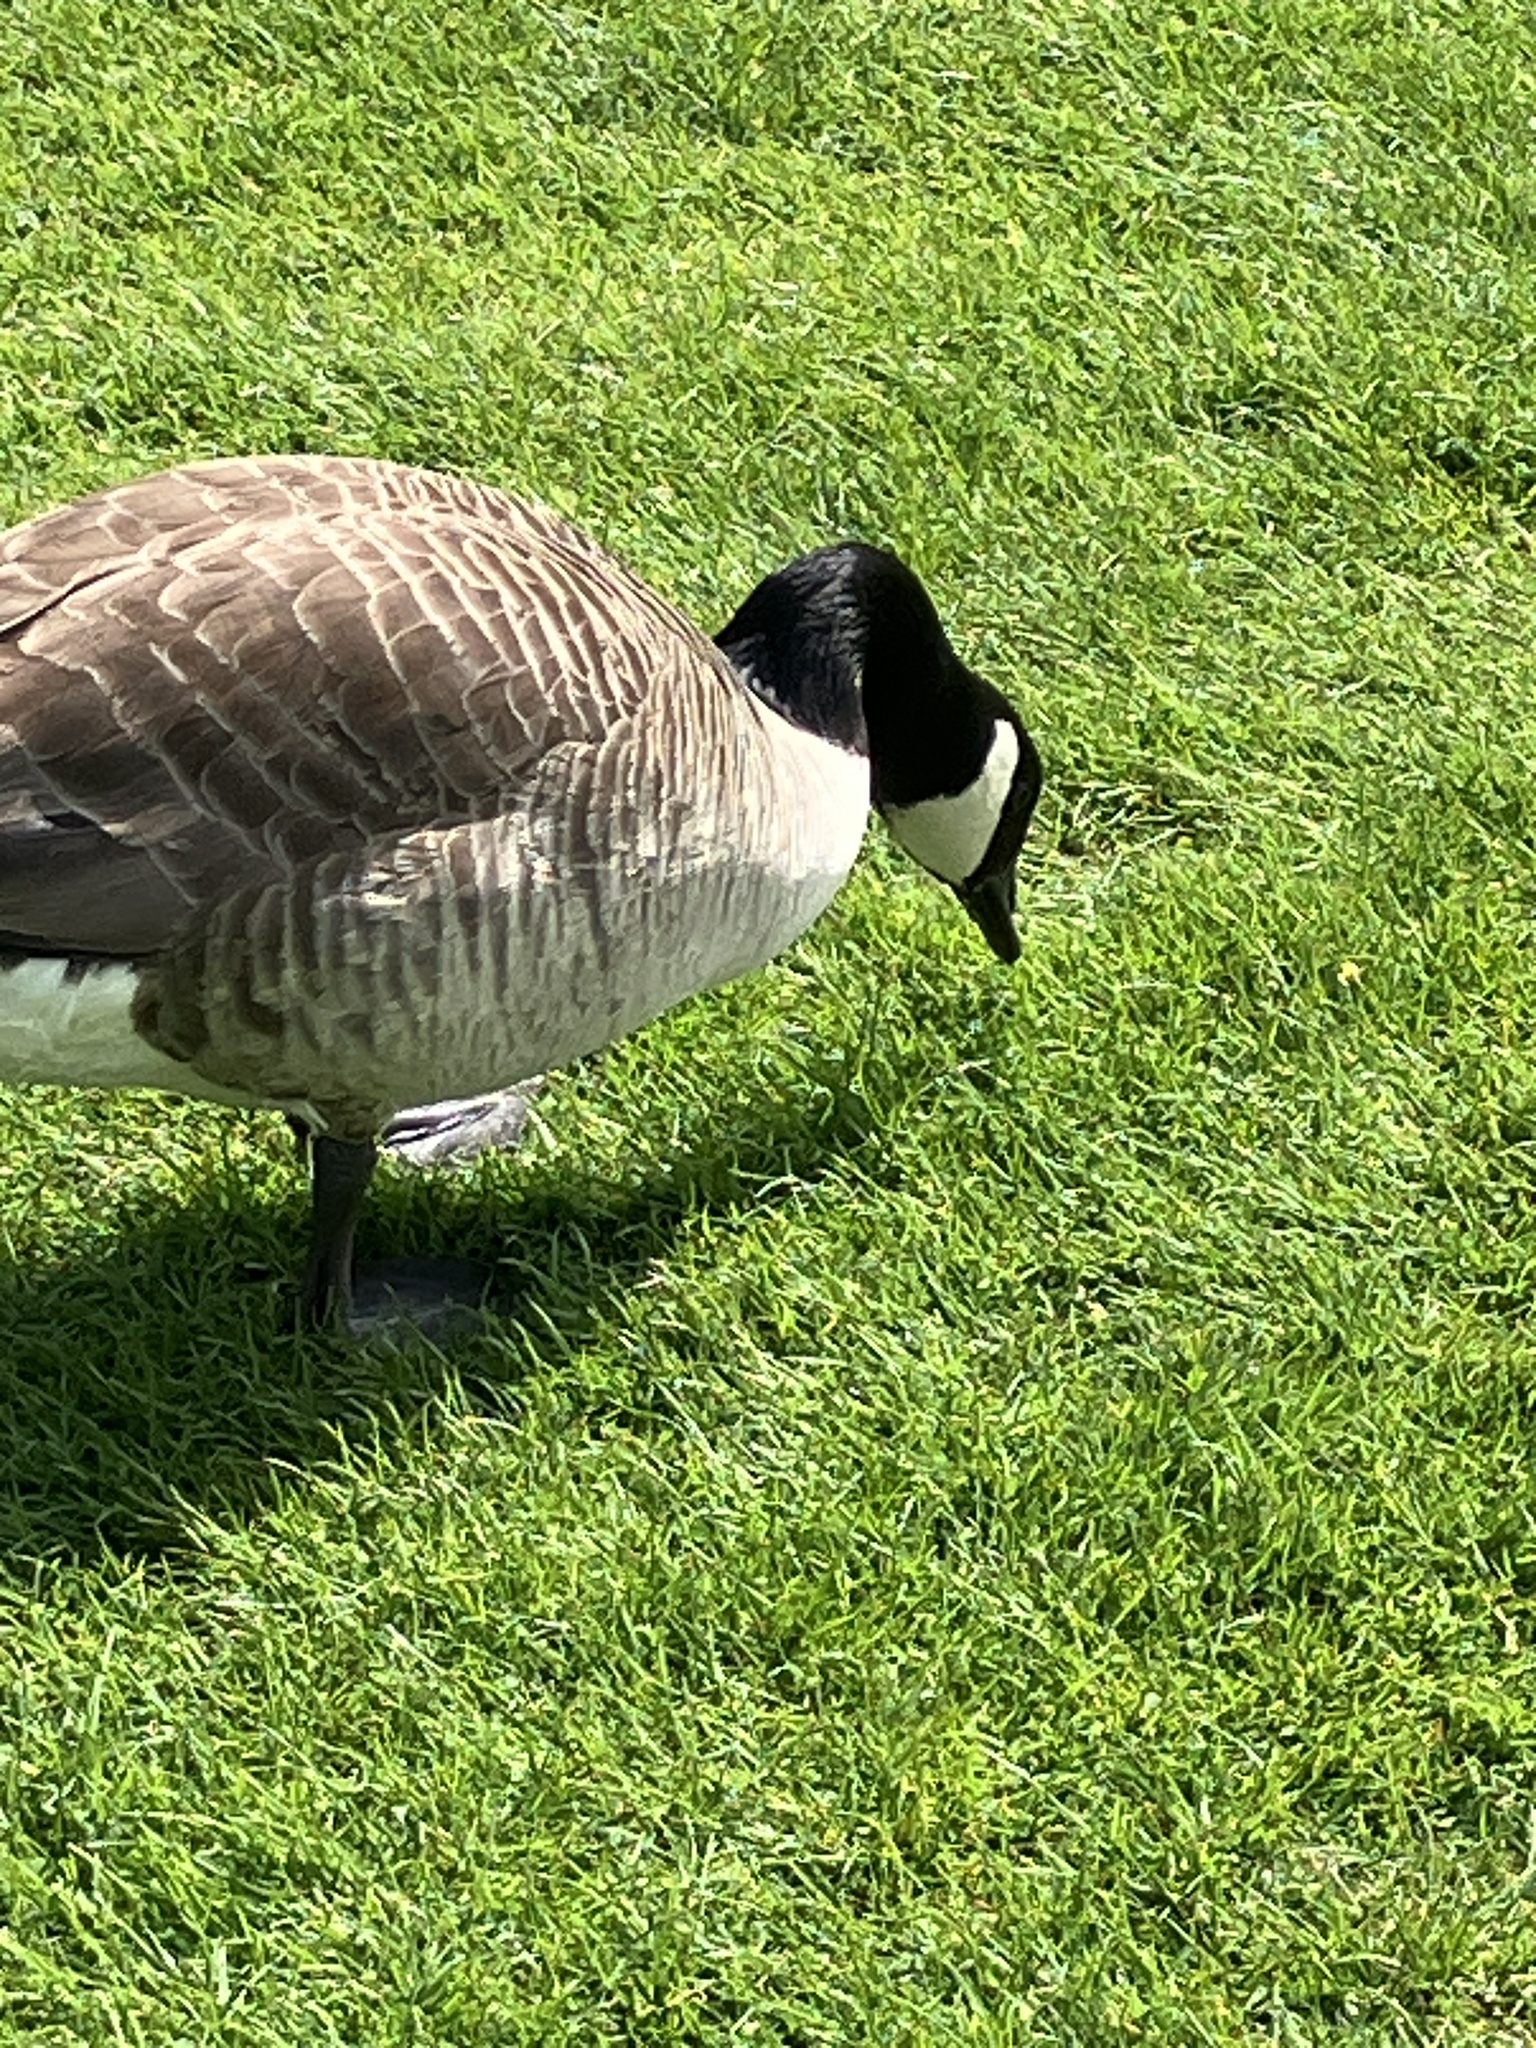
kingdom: Animalia
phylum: Chordata
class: Aves
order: Anseriformes
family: Anatidae
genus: Branta
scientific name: Branta canadensis
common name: Canada goose
